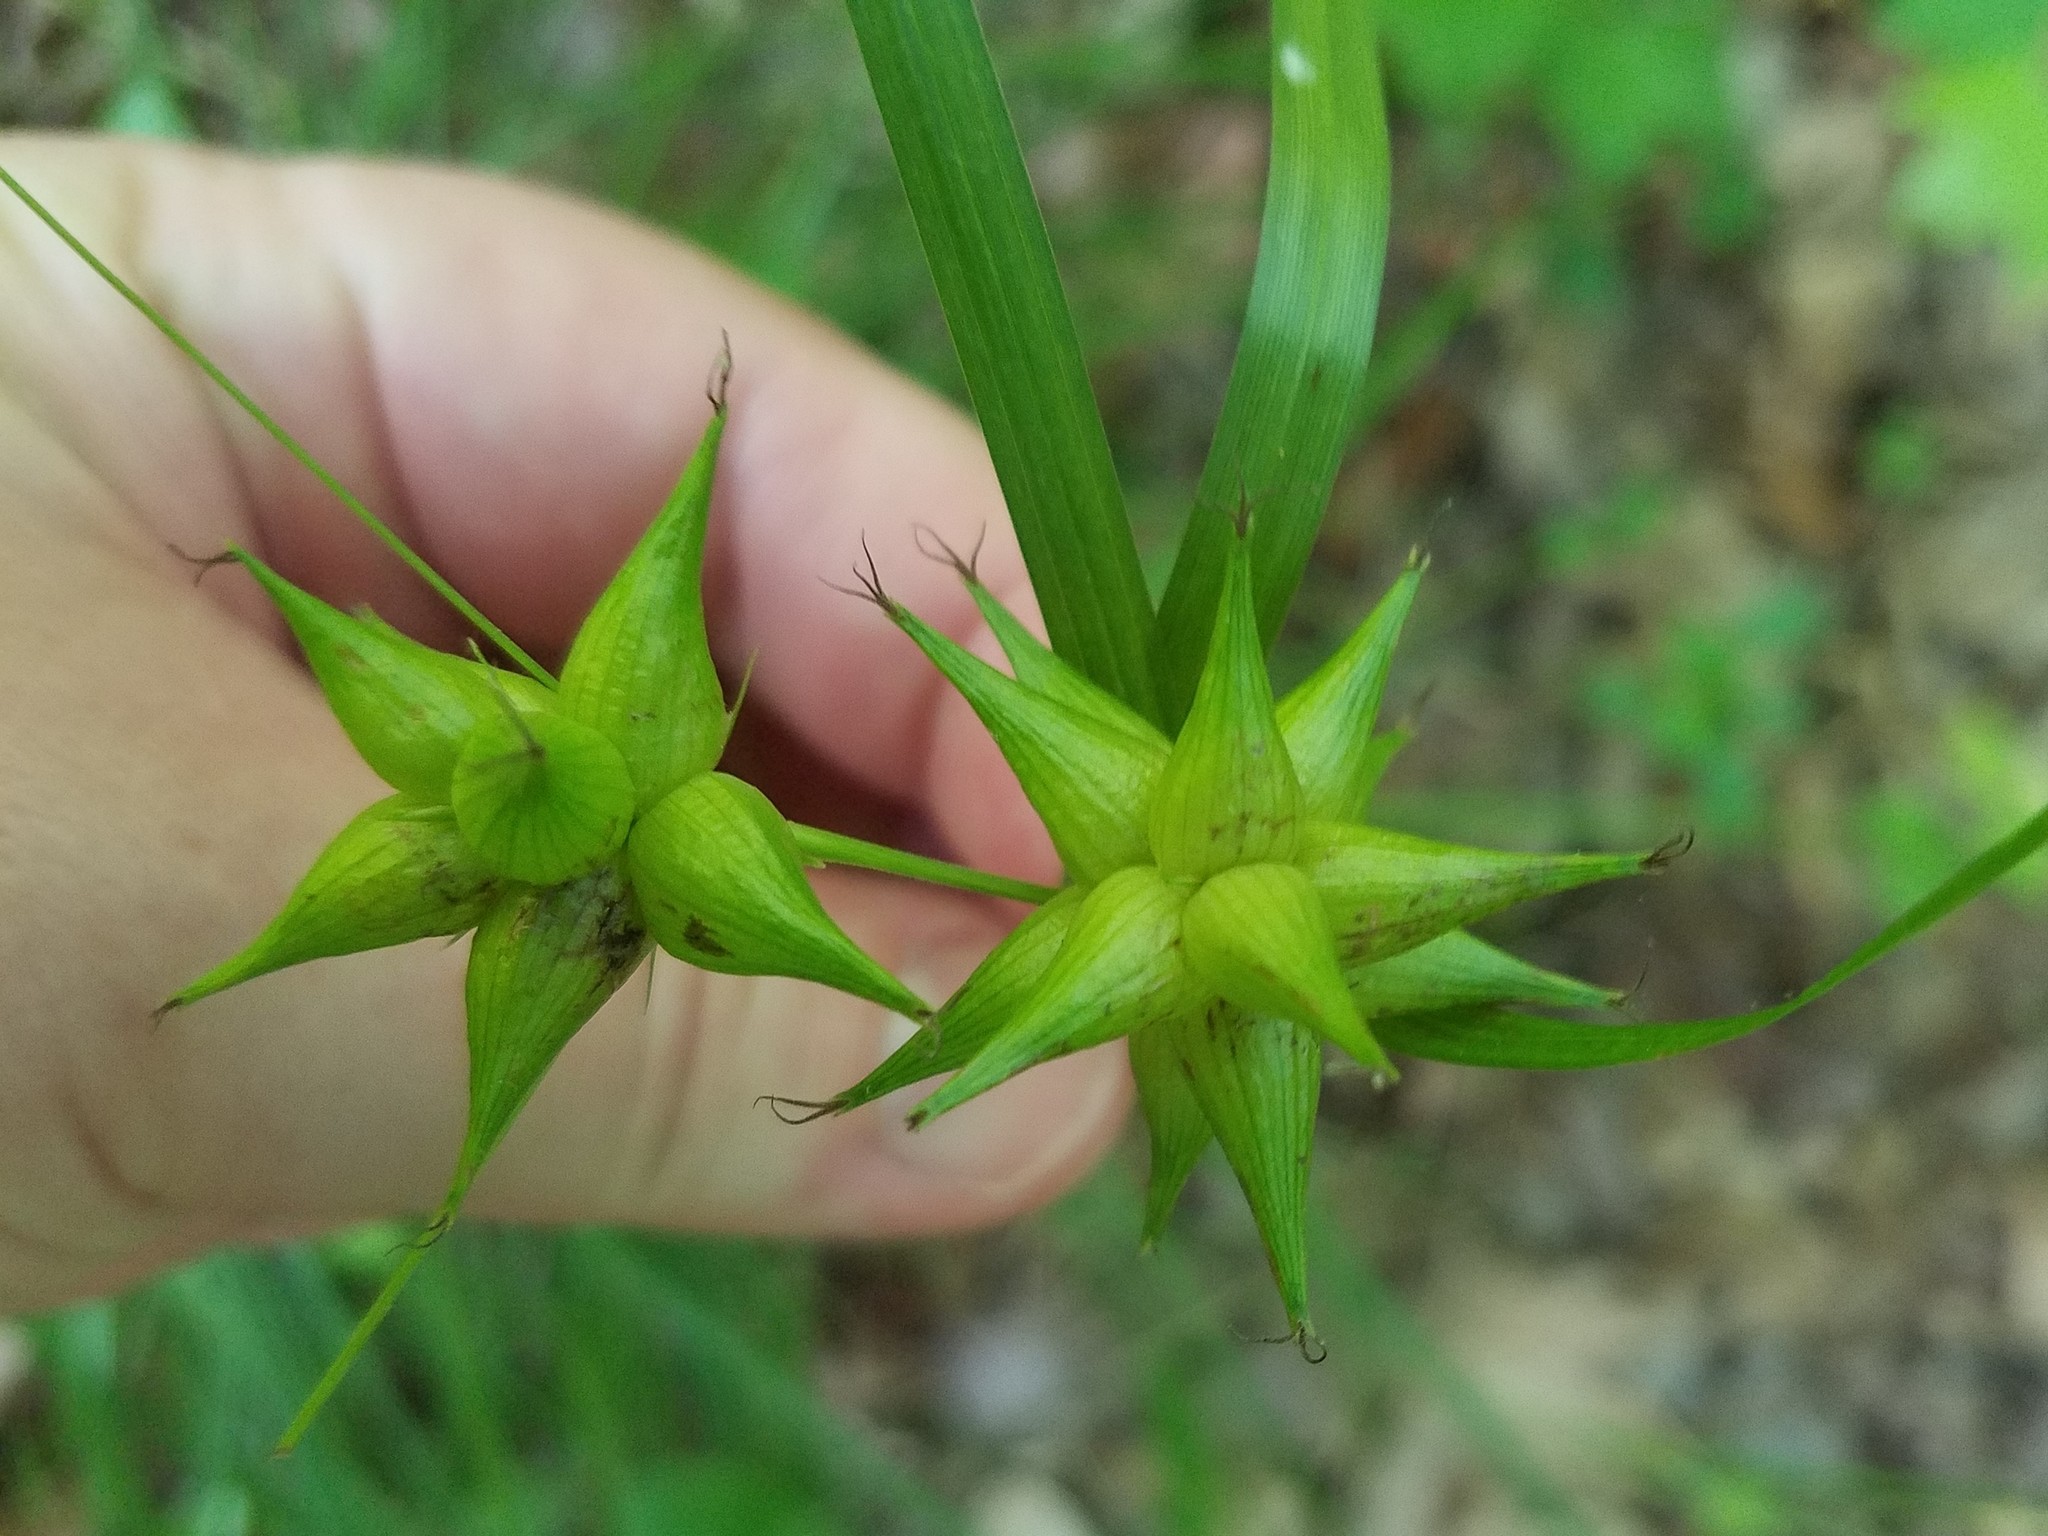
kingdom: Plantae
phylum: Tracheophyta
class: Liliopsida
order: Poales
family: Cyperaceae
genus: Carex
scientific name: Carex intumescens
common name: Greater bladder sedge
